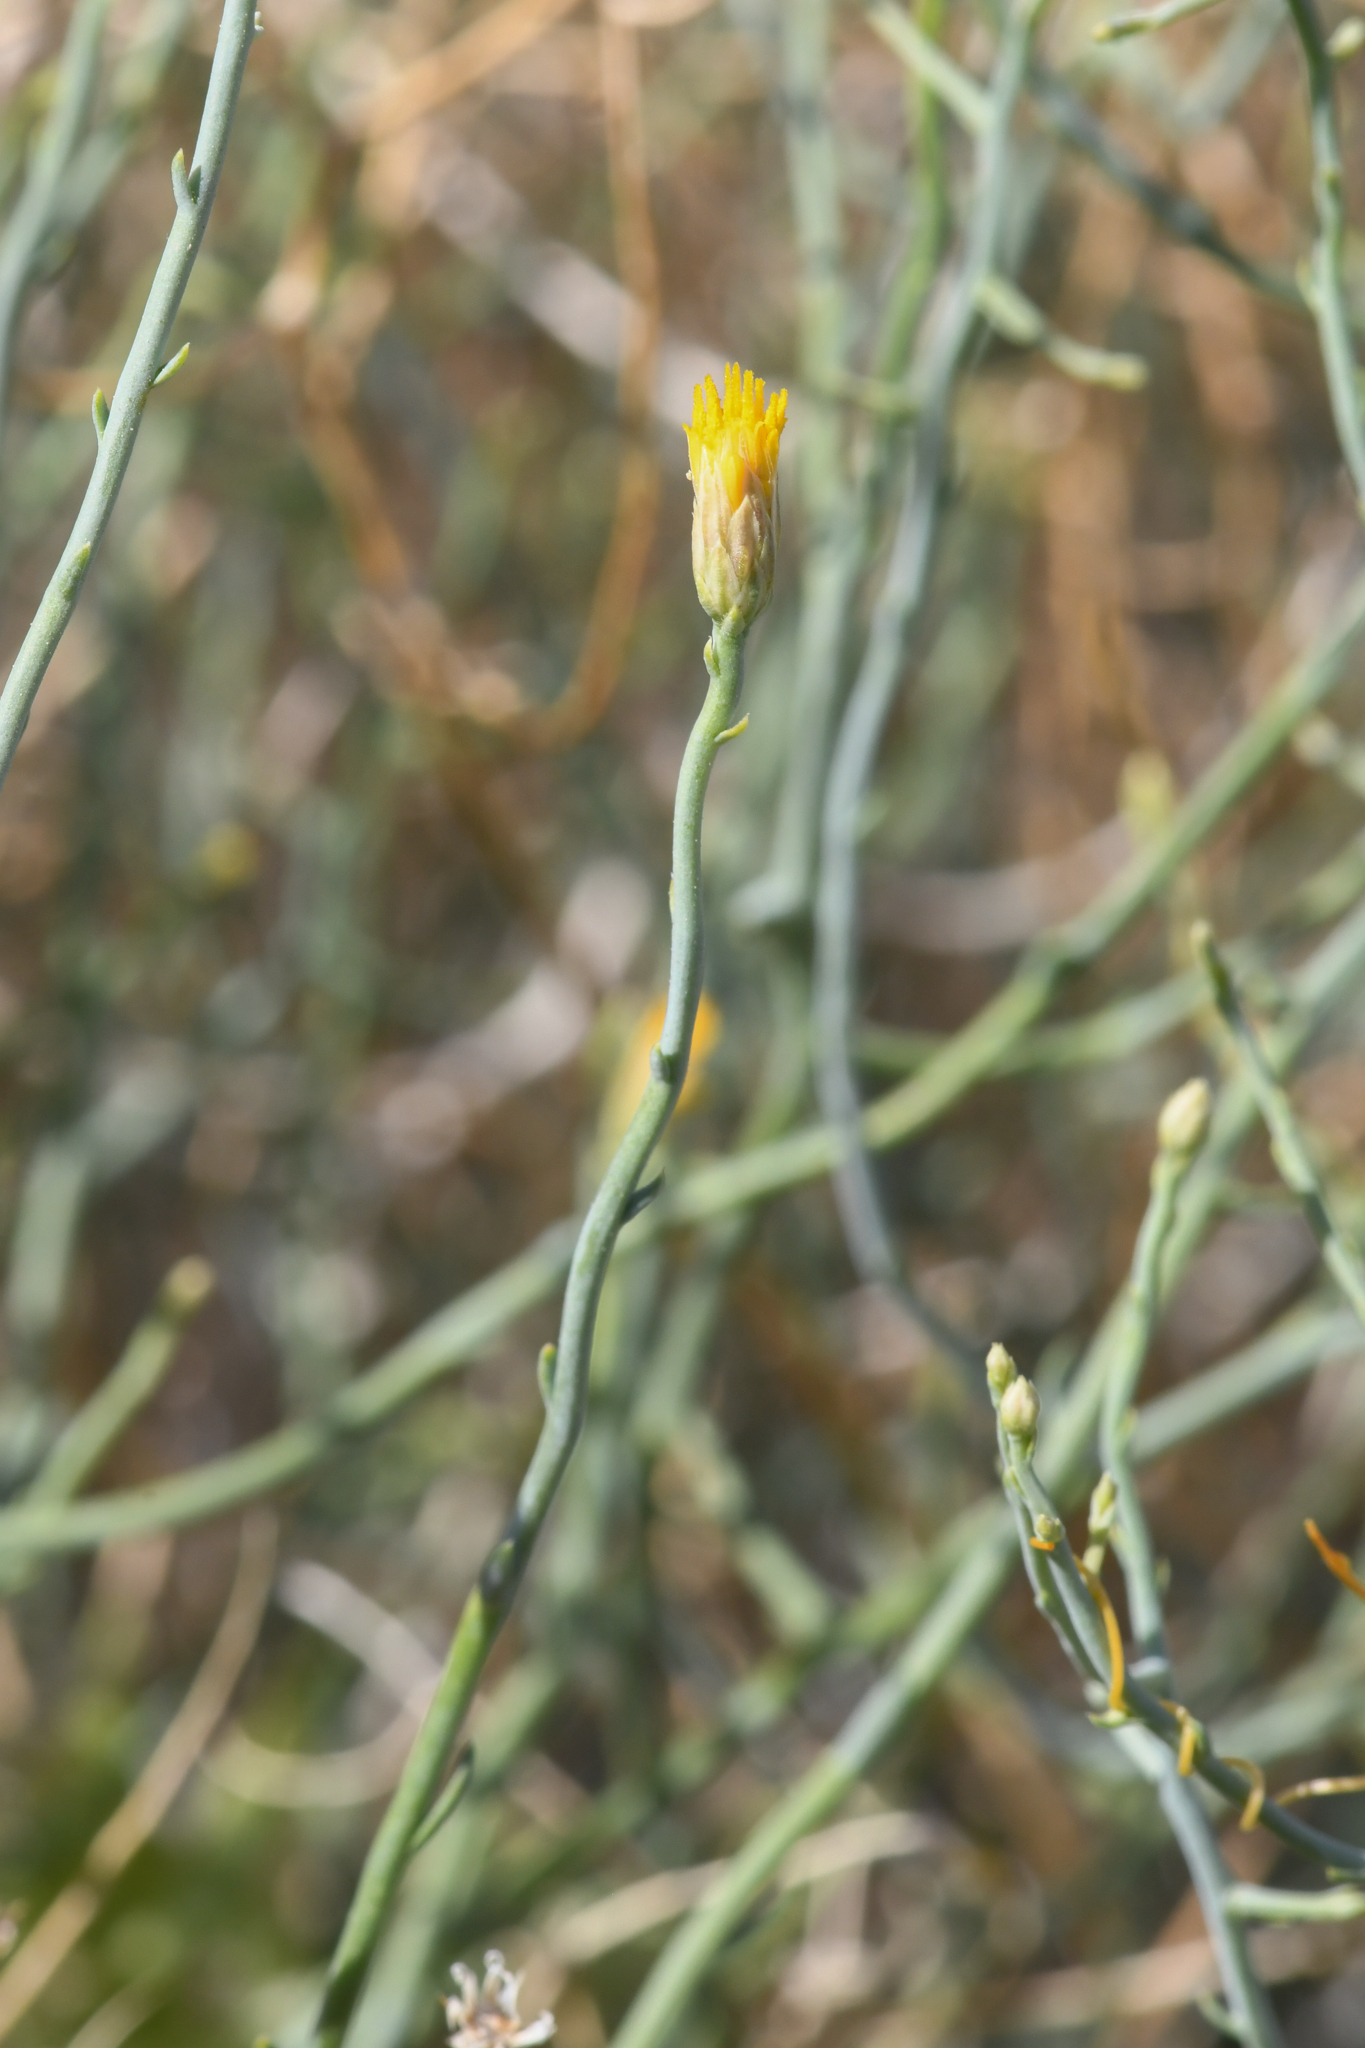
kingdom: Plantae
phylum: Tracheophyta
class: Magnoliopsida
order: Asterales
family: Asteraceae
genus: Leucosyris
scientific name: Leucosyris carnosa
